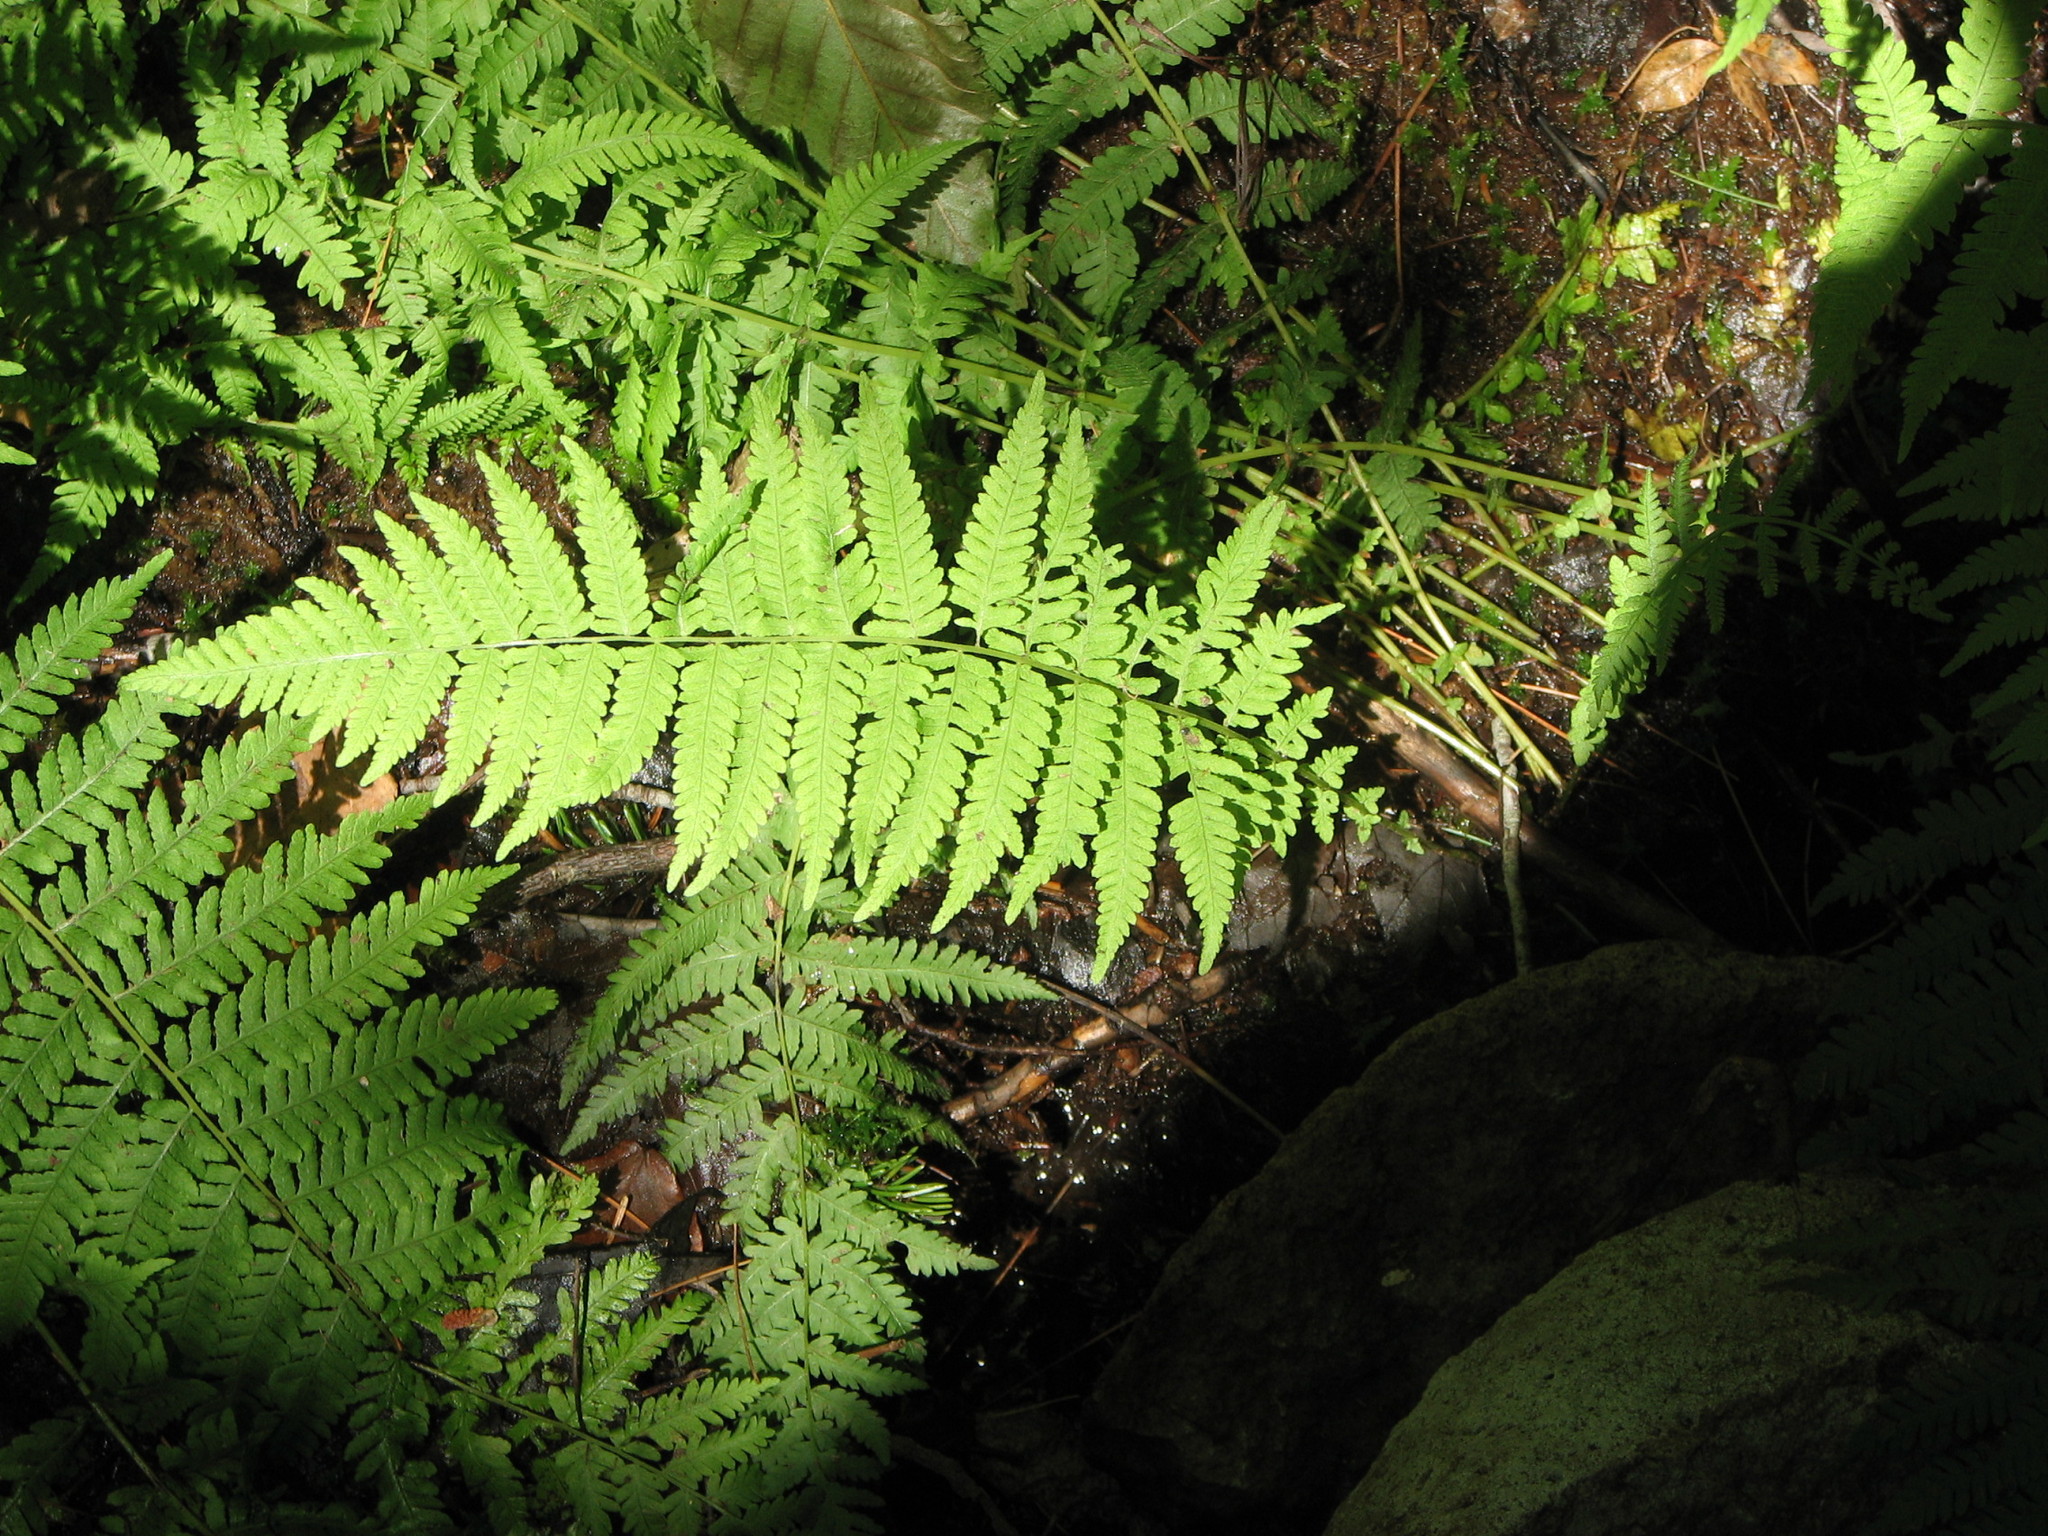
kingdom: Plantae
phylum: Tracheophyta
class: Polypodiopsida
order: Polypodiales
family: Thelypteridaceae
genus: Amauropelta
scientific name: Amauropelta noveboracensis
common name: New york fern
